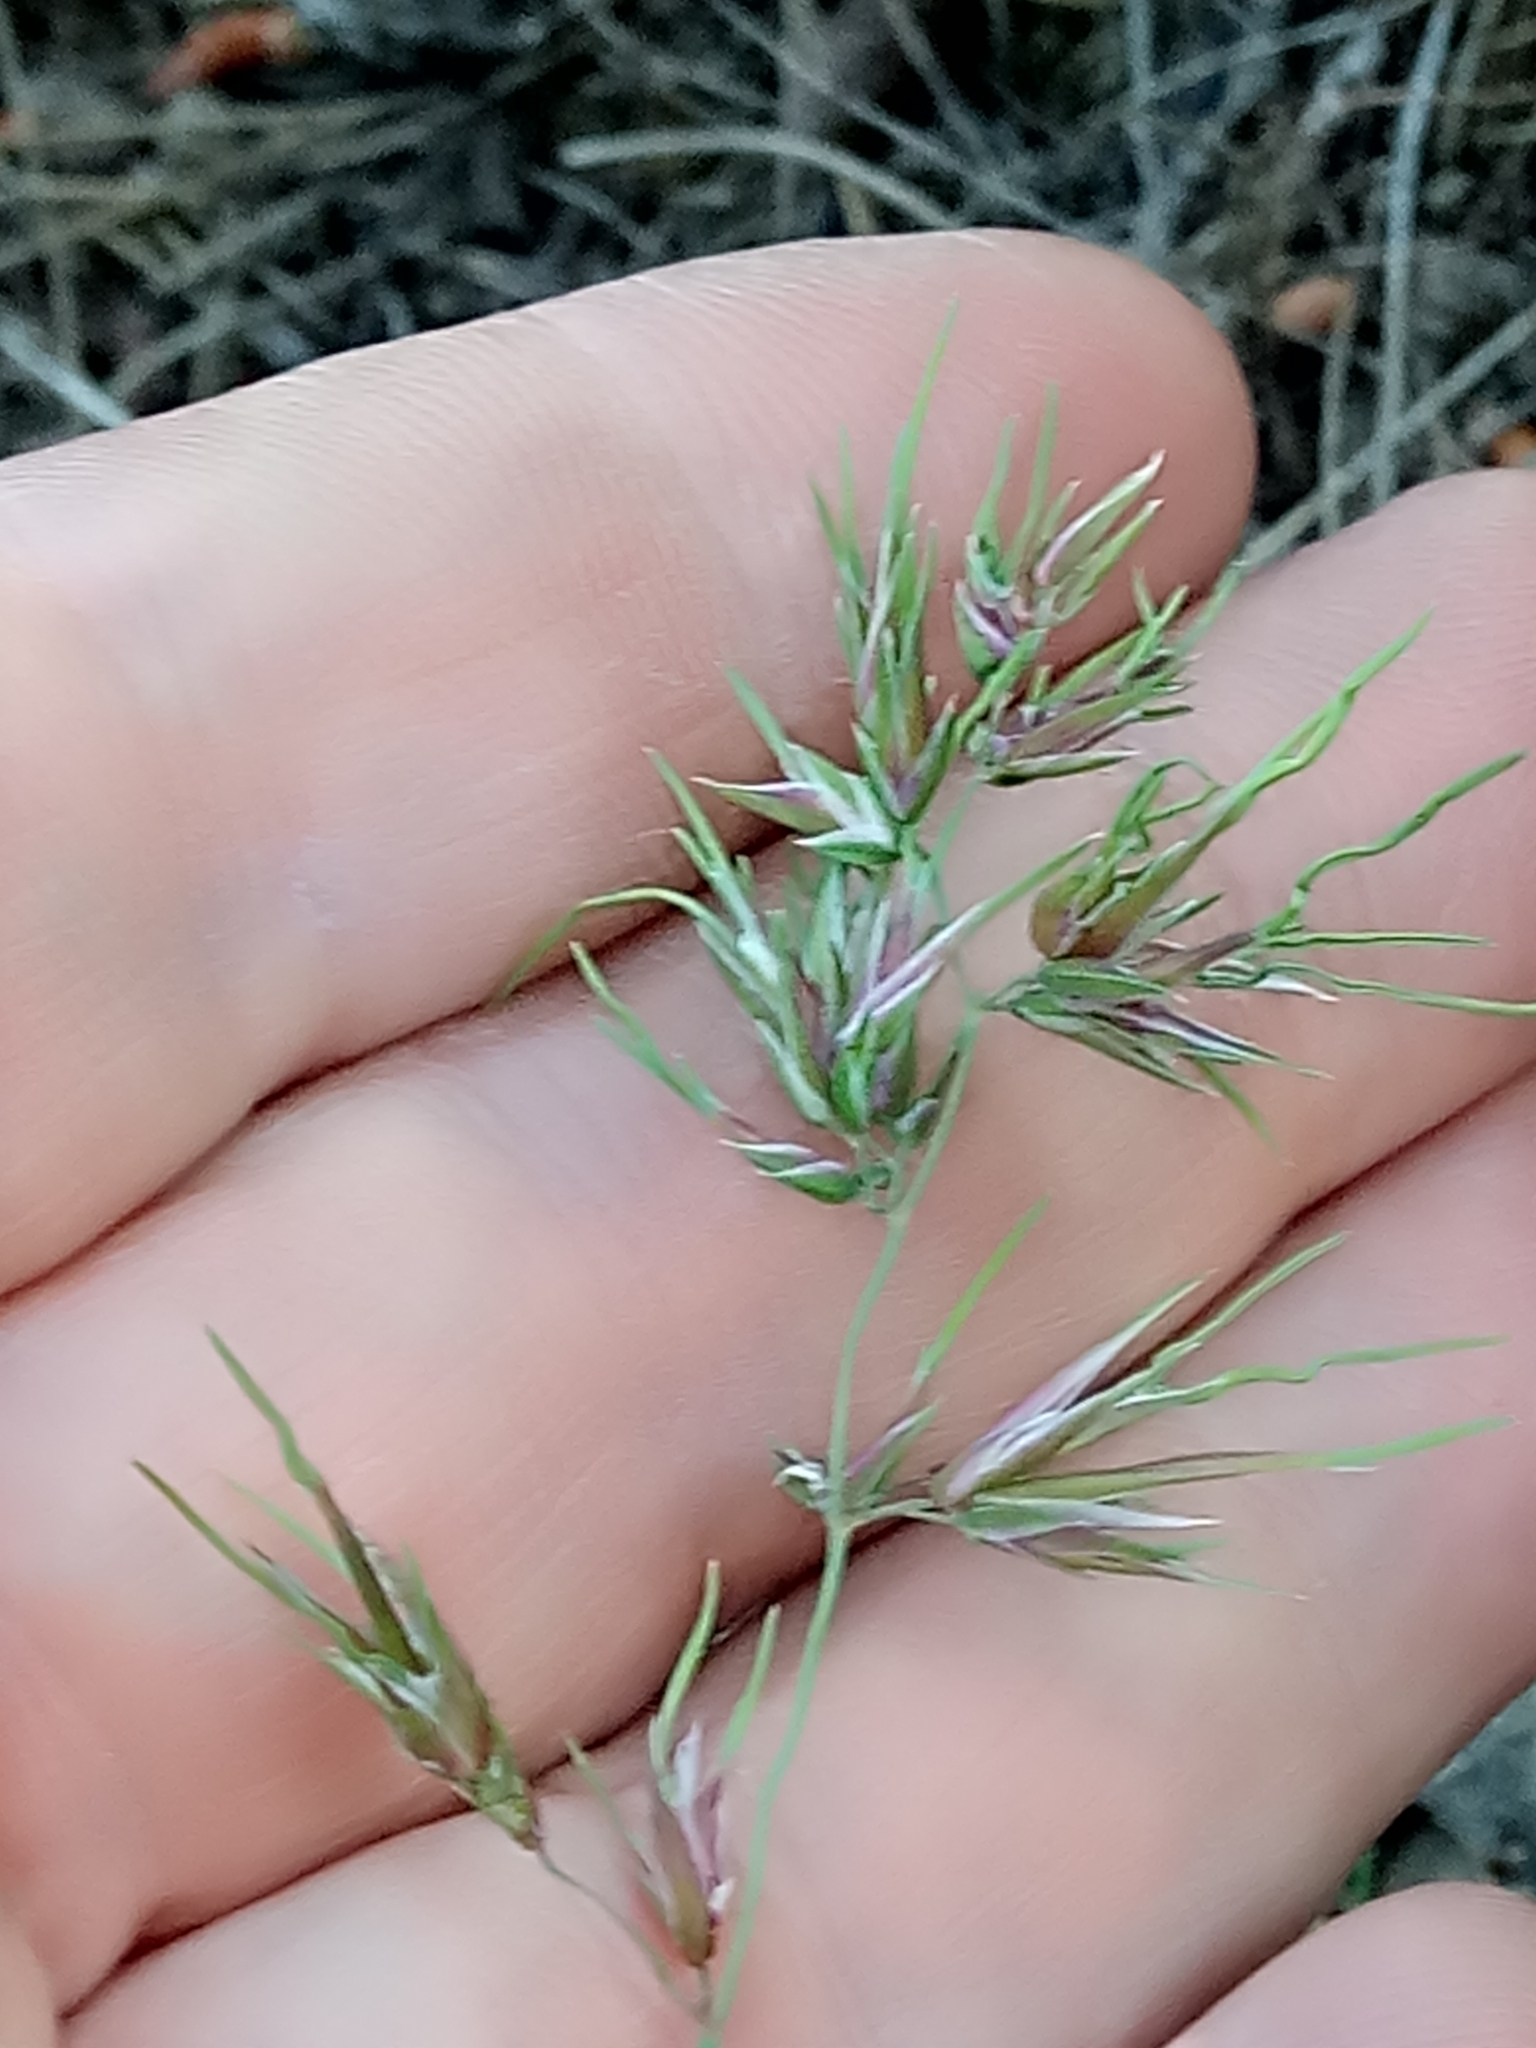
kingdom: Plantae
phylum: Tracheophyta
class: Liliopsida
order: Poales
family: Poaceae
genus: Poa
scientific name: Poa bulbosa
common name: Bulbous bluegrass
